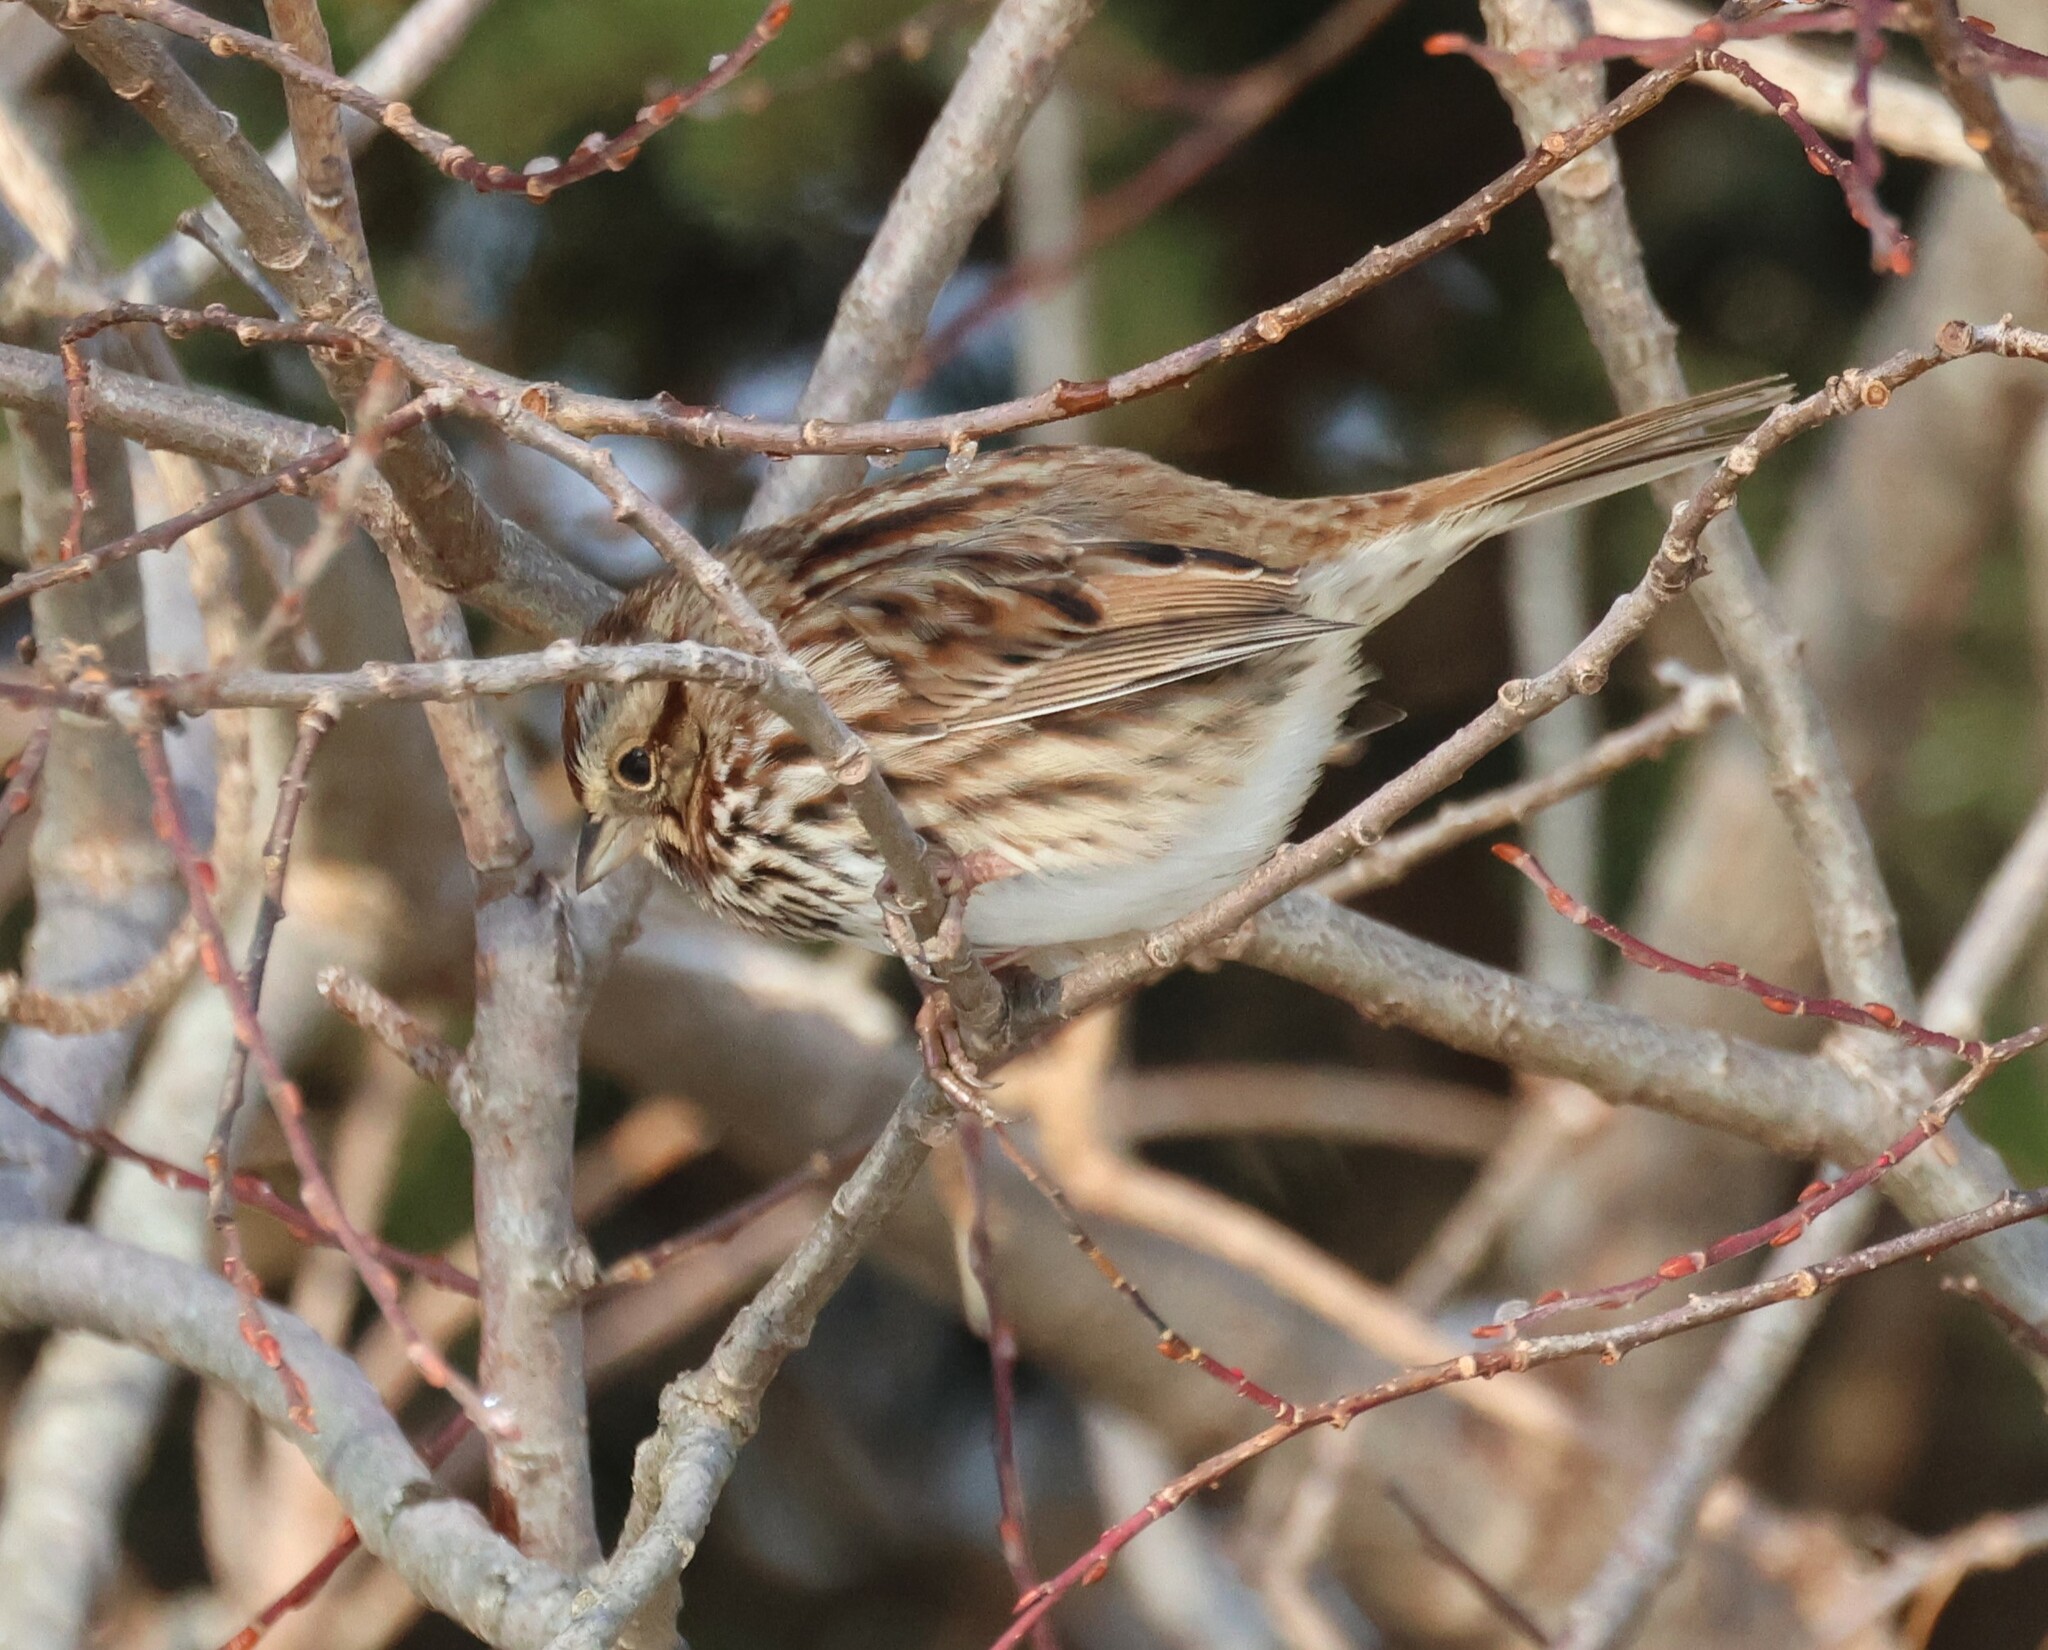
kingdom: Animalia
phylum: Chordata
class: Aves
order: Passeriformes
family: Passerellidae
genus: Melospiza
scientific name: Melospiza melodia
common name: Song sparrow
